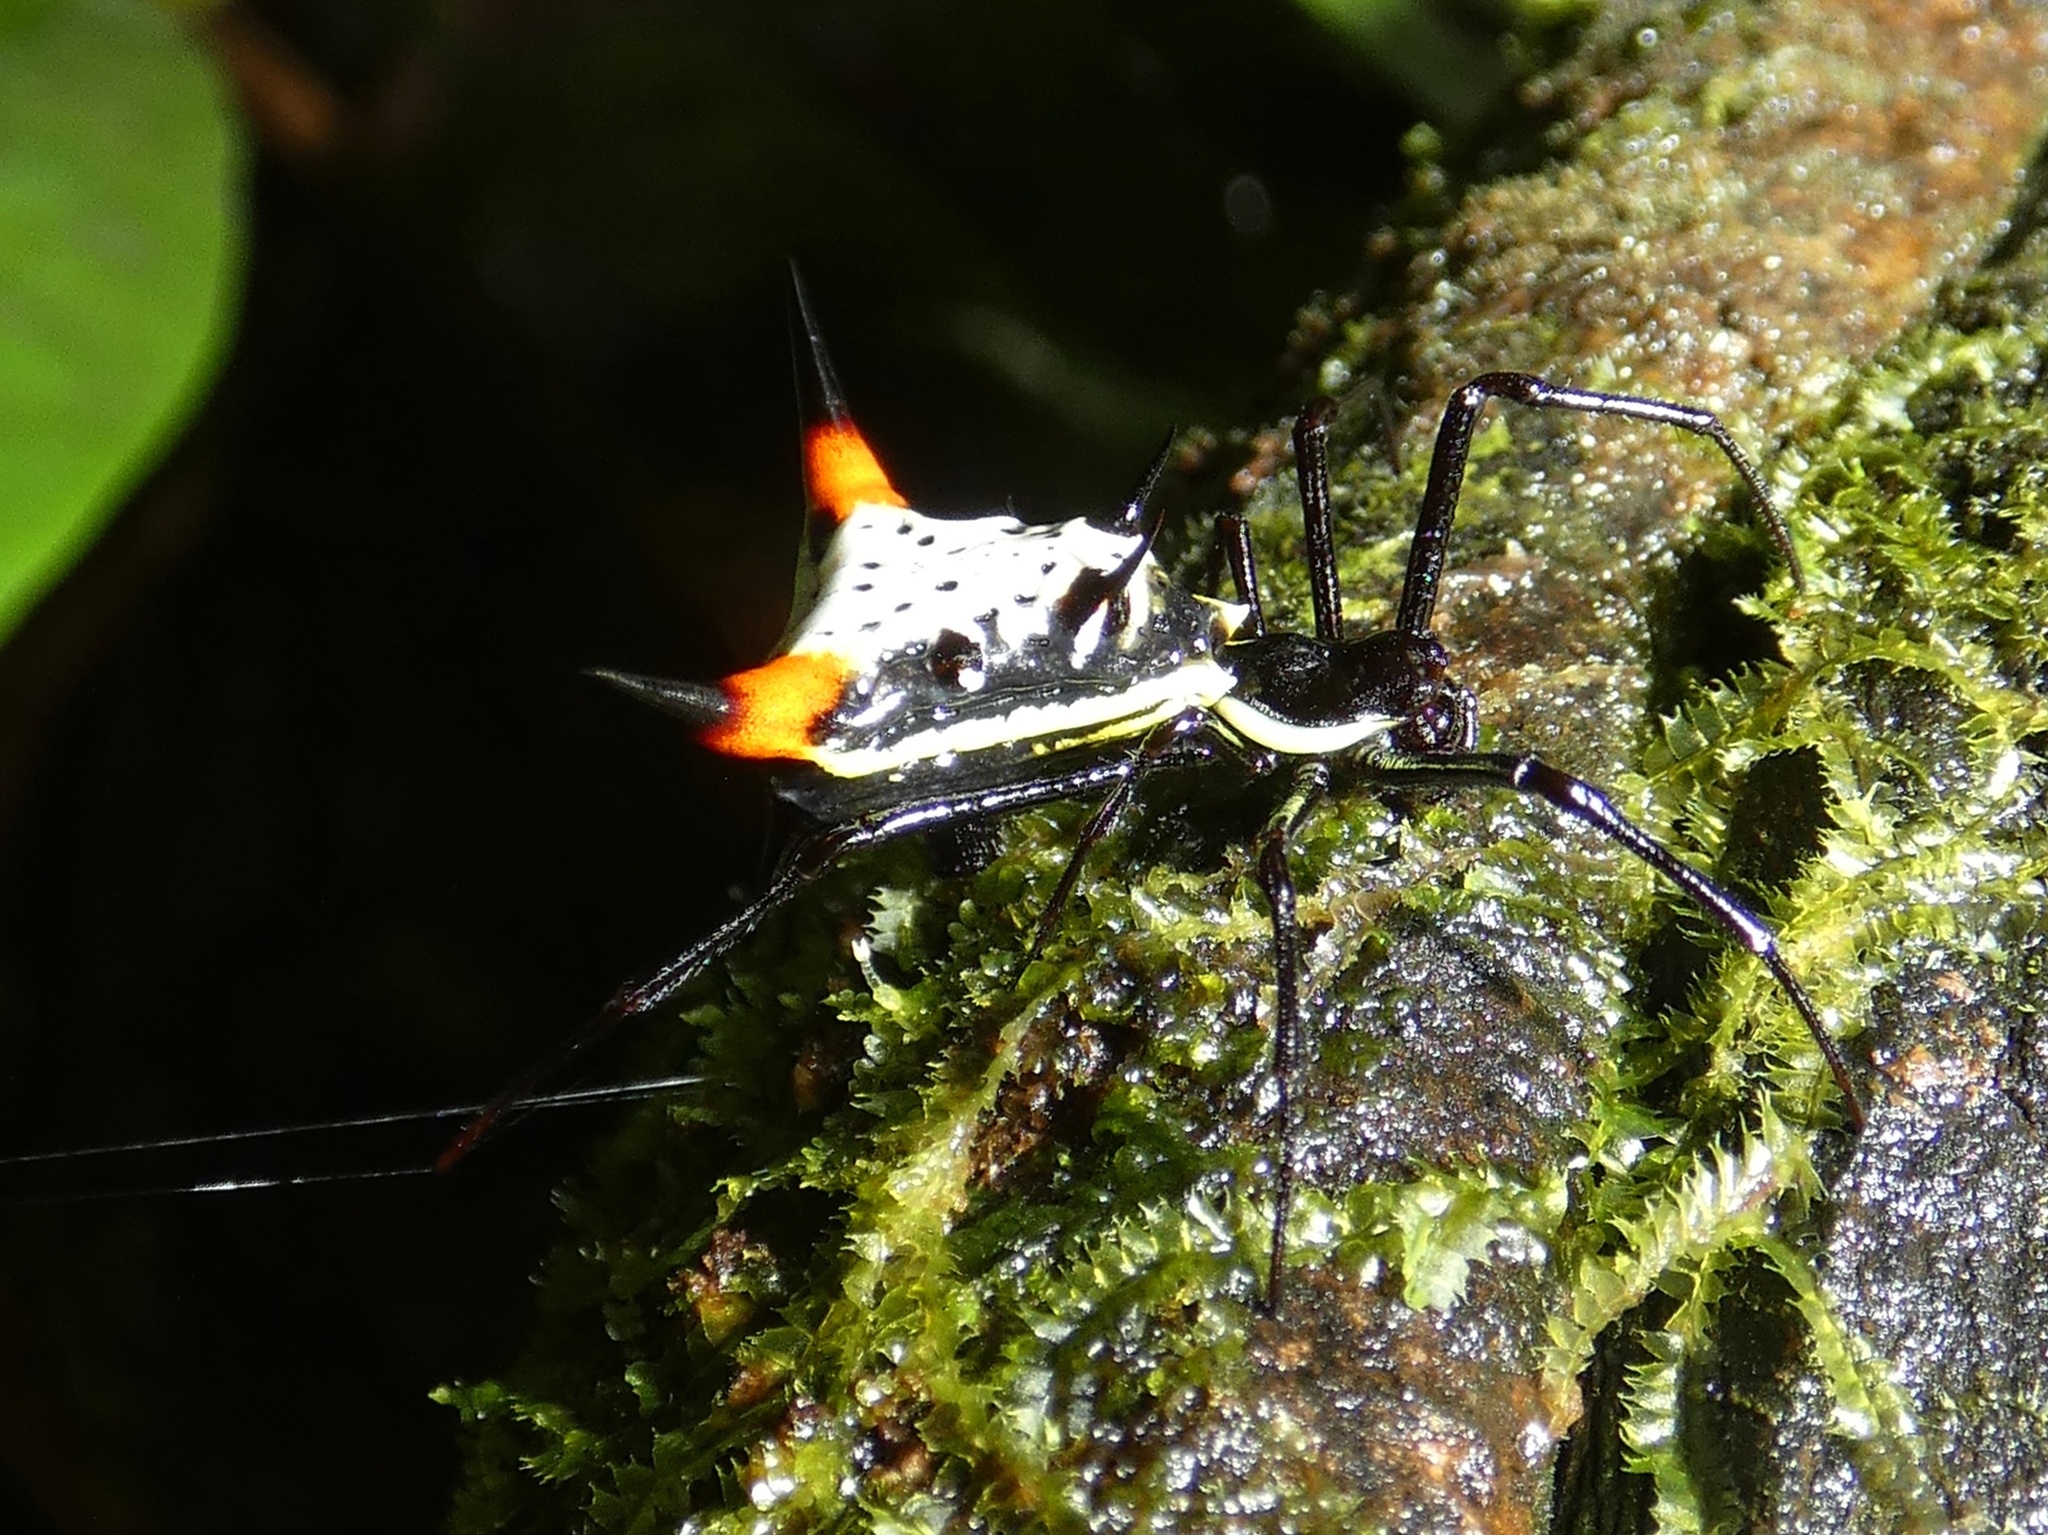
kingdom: Animalia
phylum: Arthropoda
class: Arachnida
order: Araneae
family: Araneidae
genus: Micrathena
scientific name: Micrathena schreibersi
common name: Orb weavers
